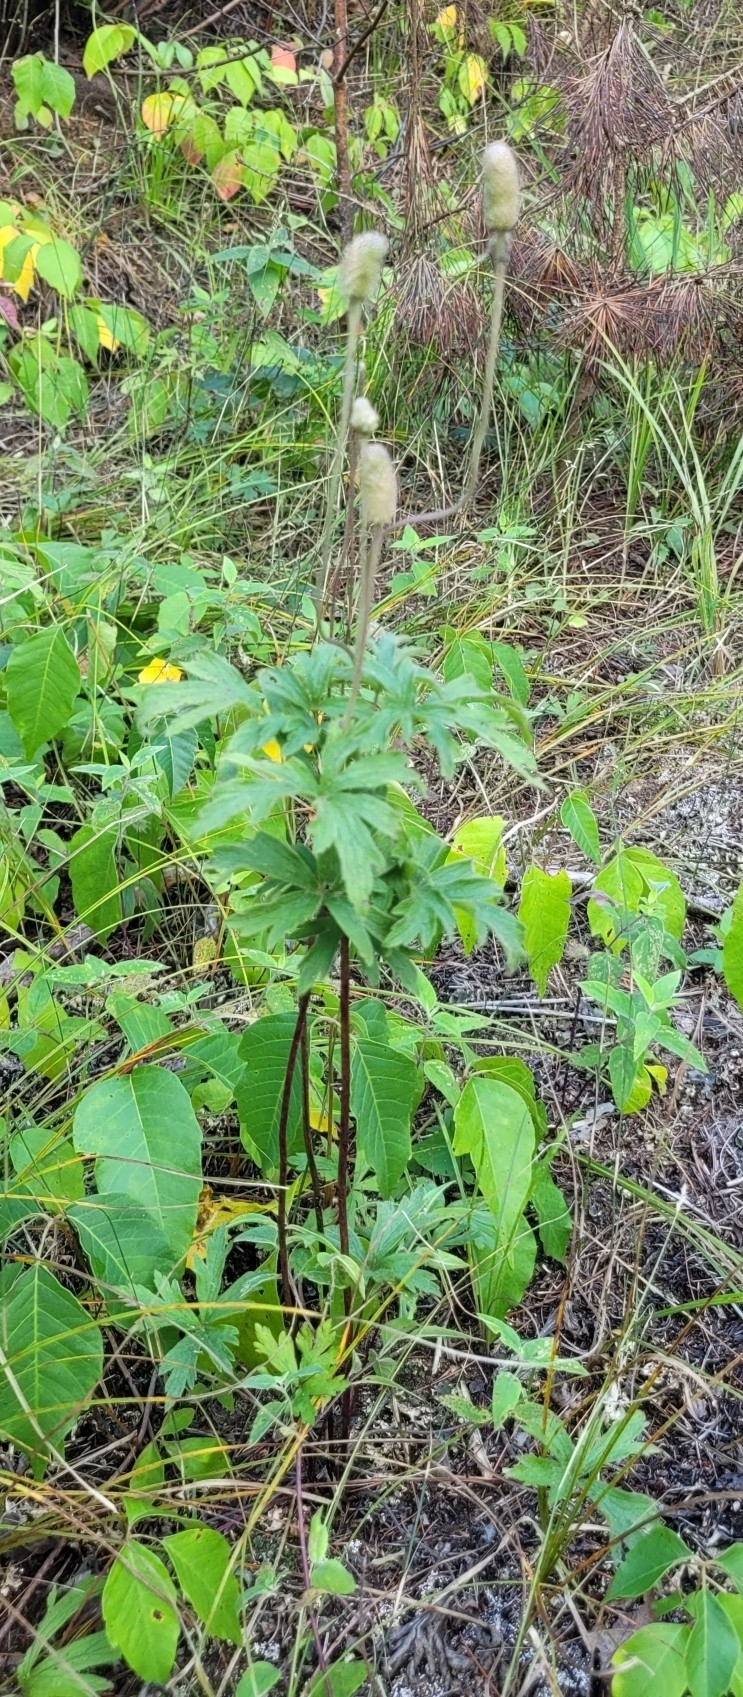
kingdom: Plantae
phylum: Tracheophyta
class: Magnoliopsida
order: Ranunculales
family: Ranunculaceae
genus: Anemone
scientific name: Anemone cylindrica
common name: Candle anemone
